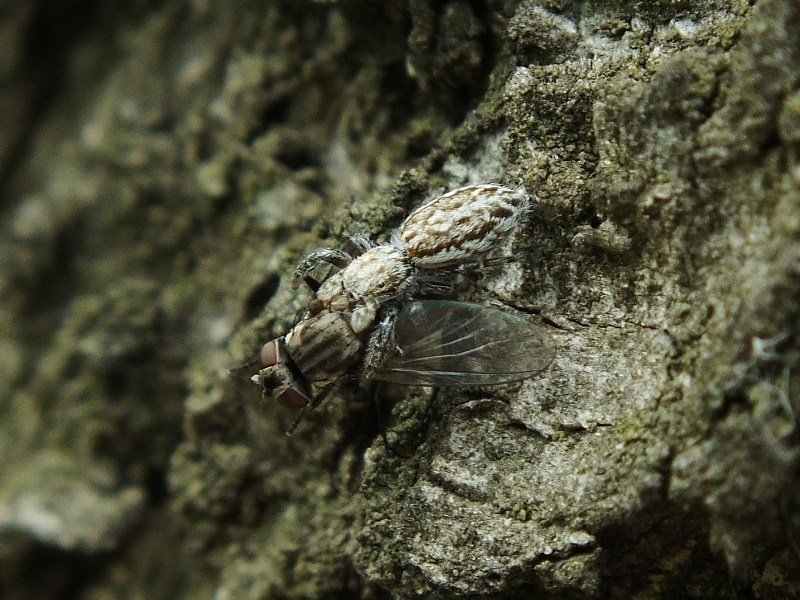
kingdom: Animalia
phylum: Arthropoda
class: Arachnida
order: Araneae
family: Salticidae
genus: Pseudicius
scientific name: Pseudicius encarpatus
